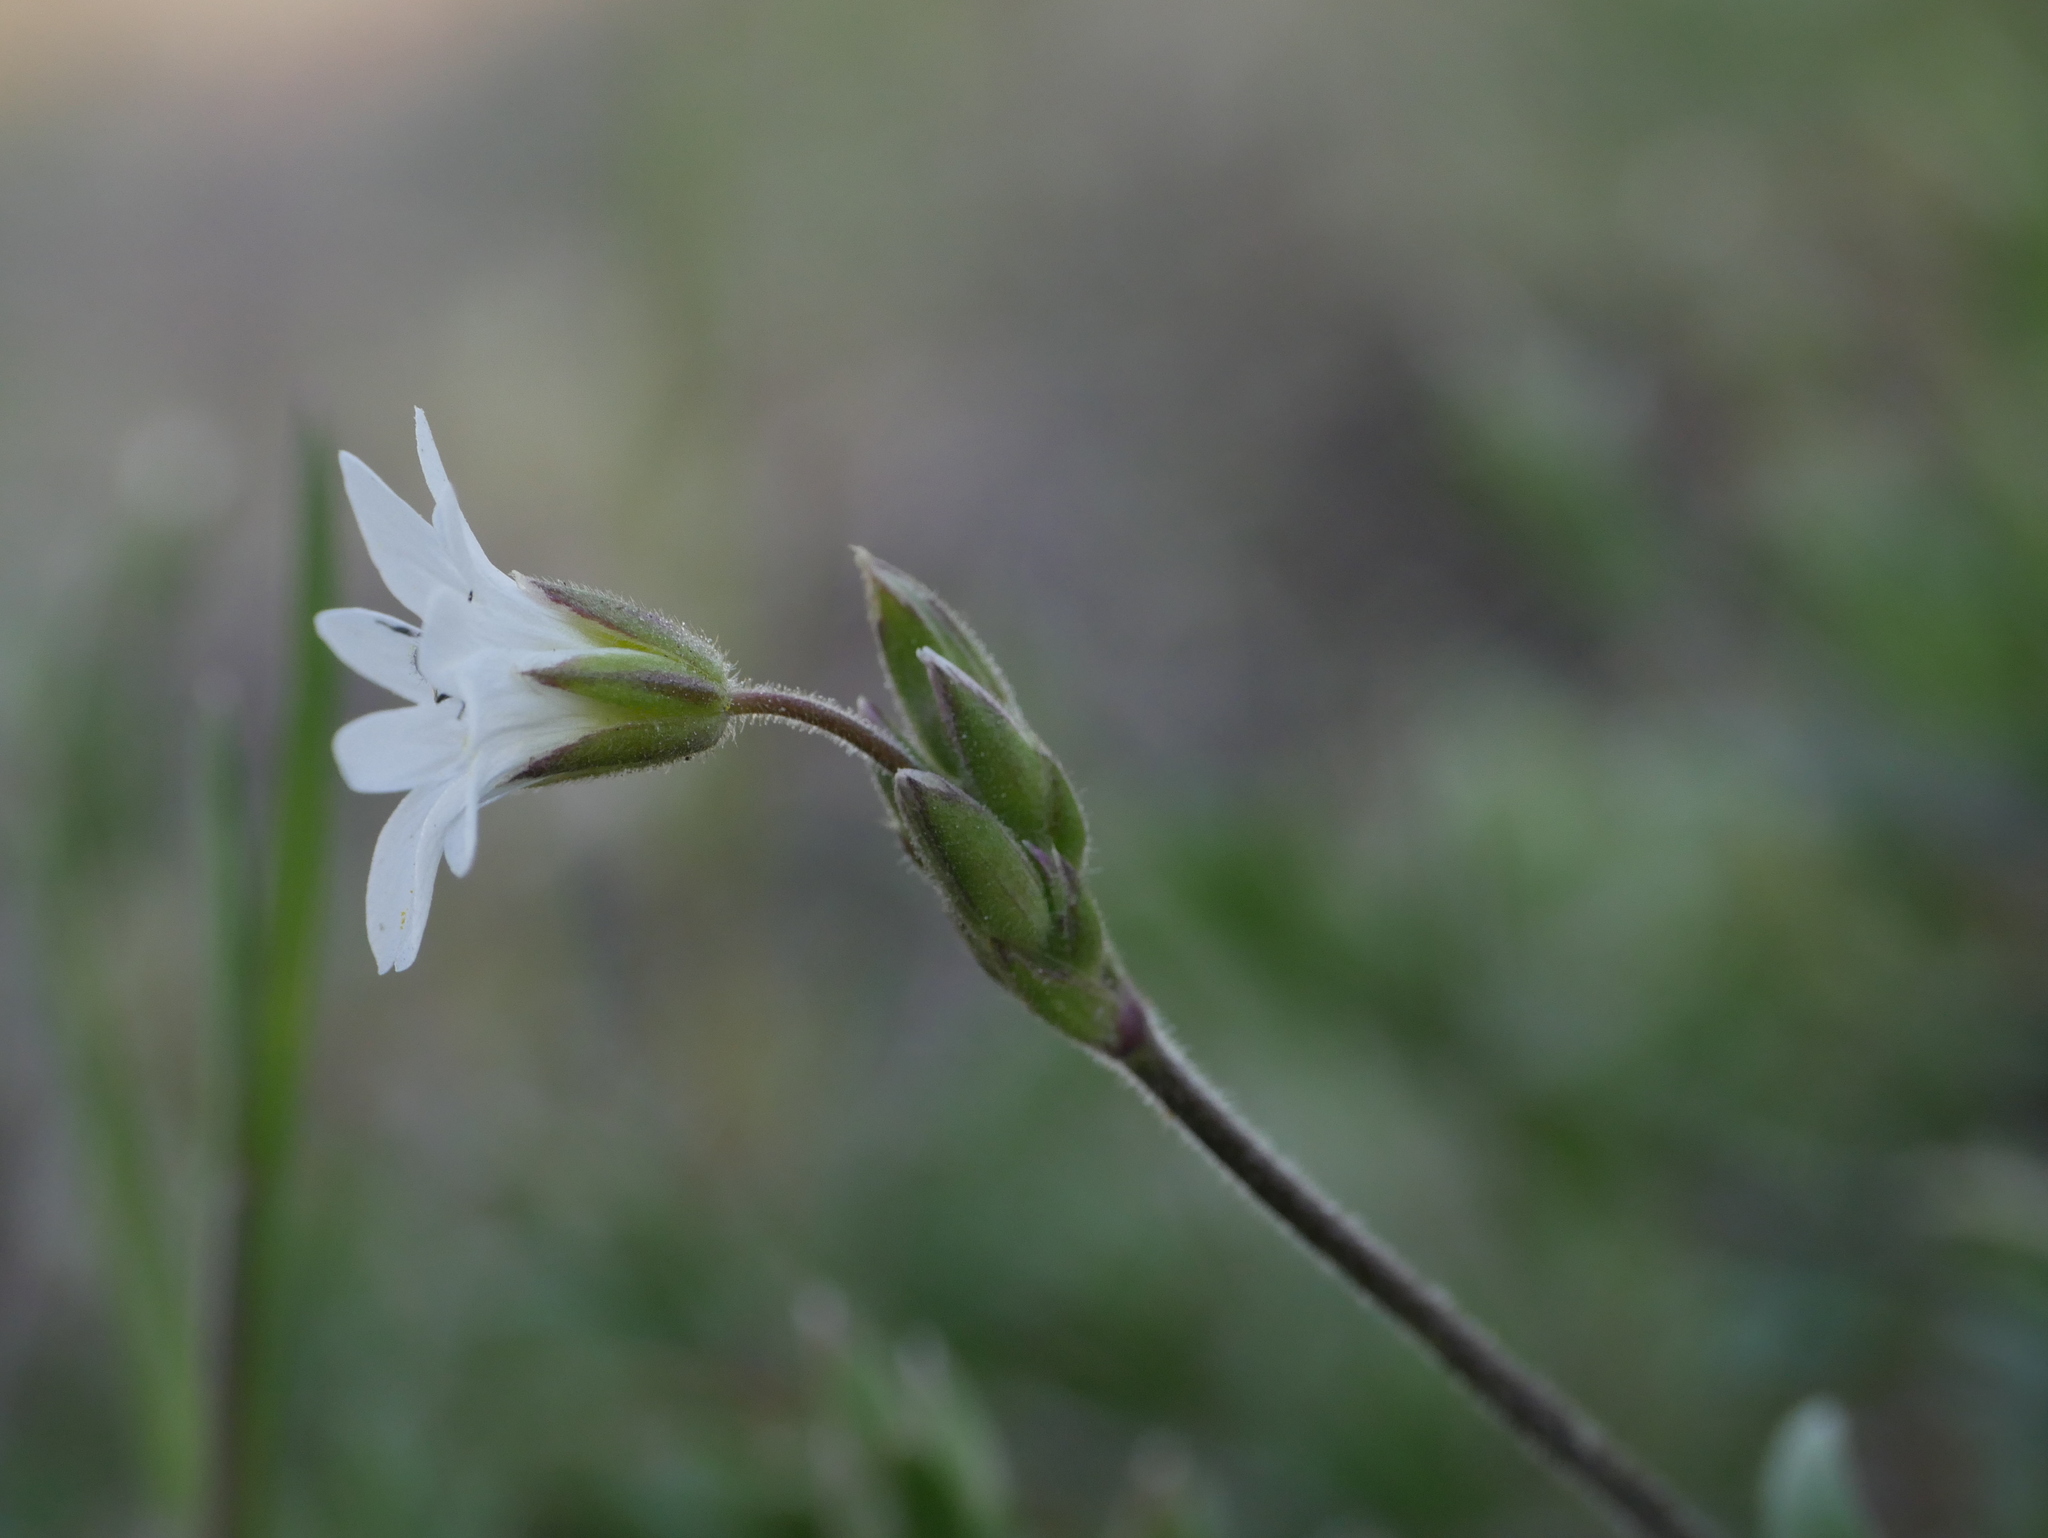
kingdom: Plantae
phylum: Tracheophyta
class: Magnoliopsida
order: Caryophyllales
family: Caryophyllaceae
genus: Cerastium
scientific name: Cerastium arvense
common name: Field mouse-ear
